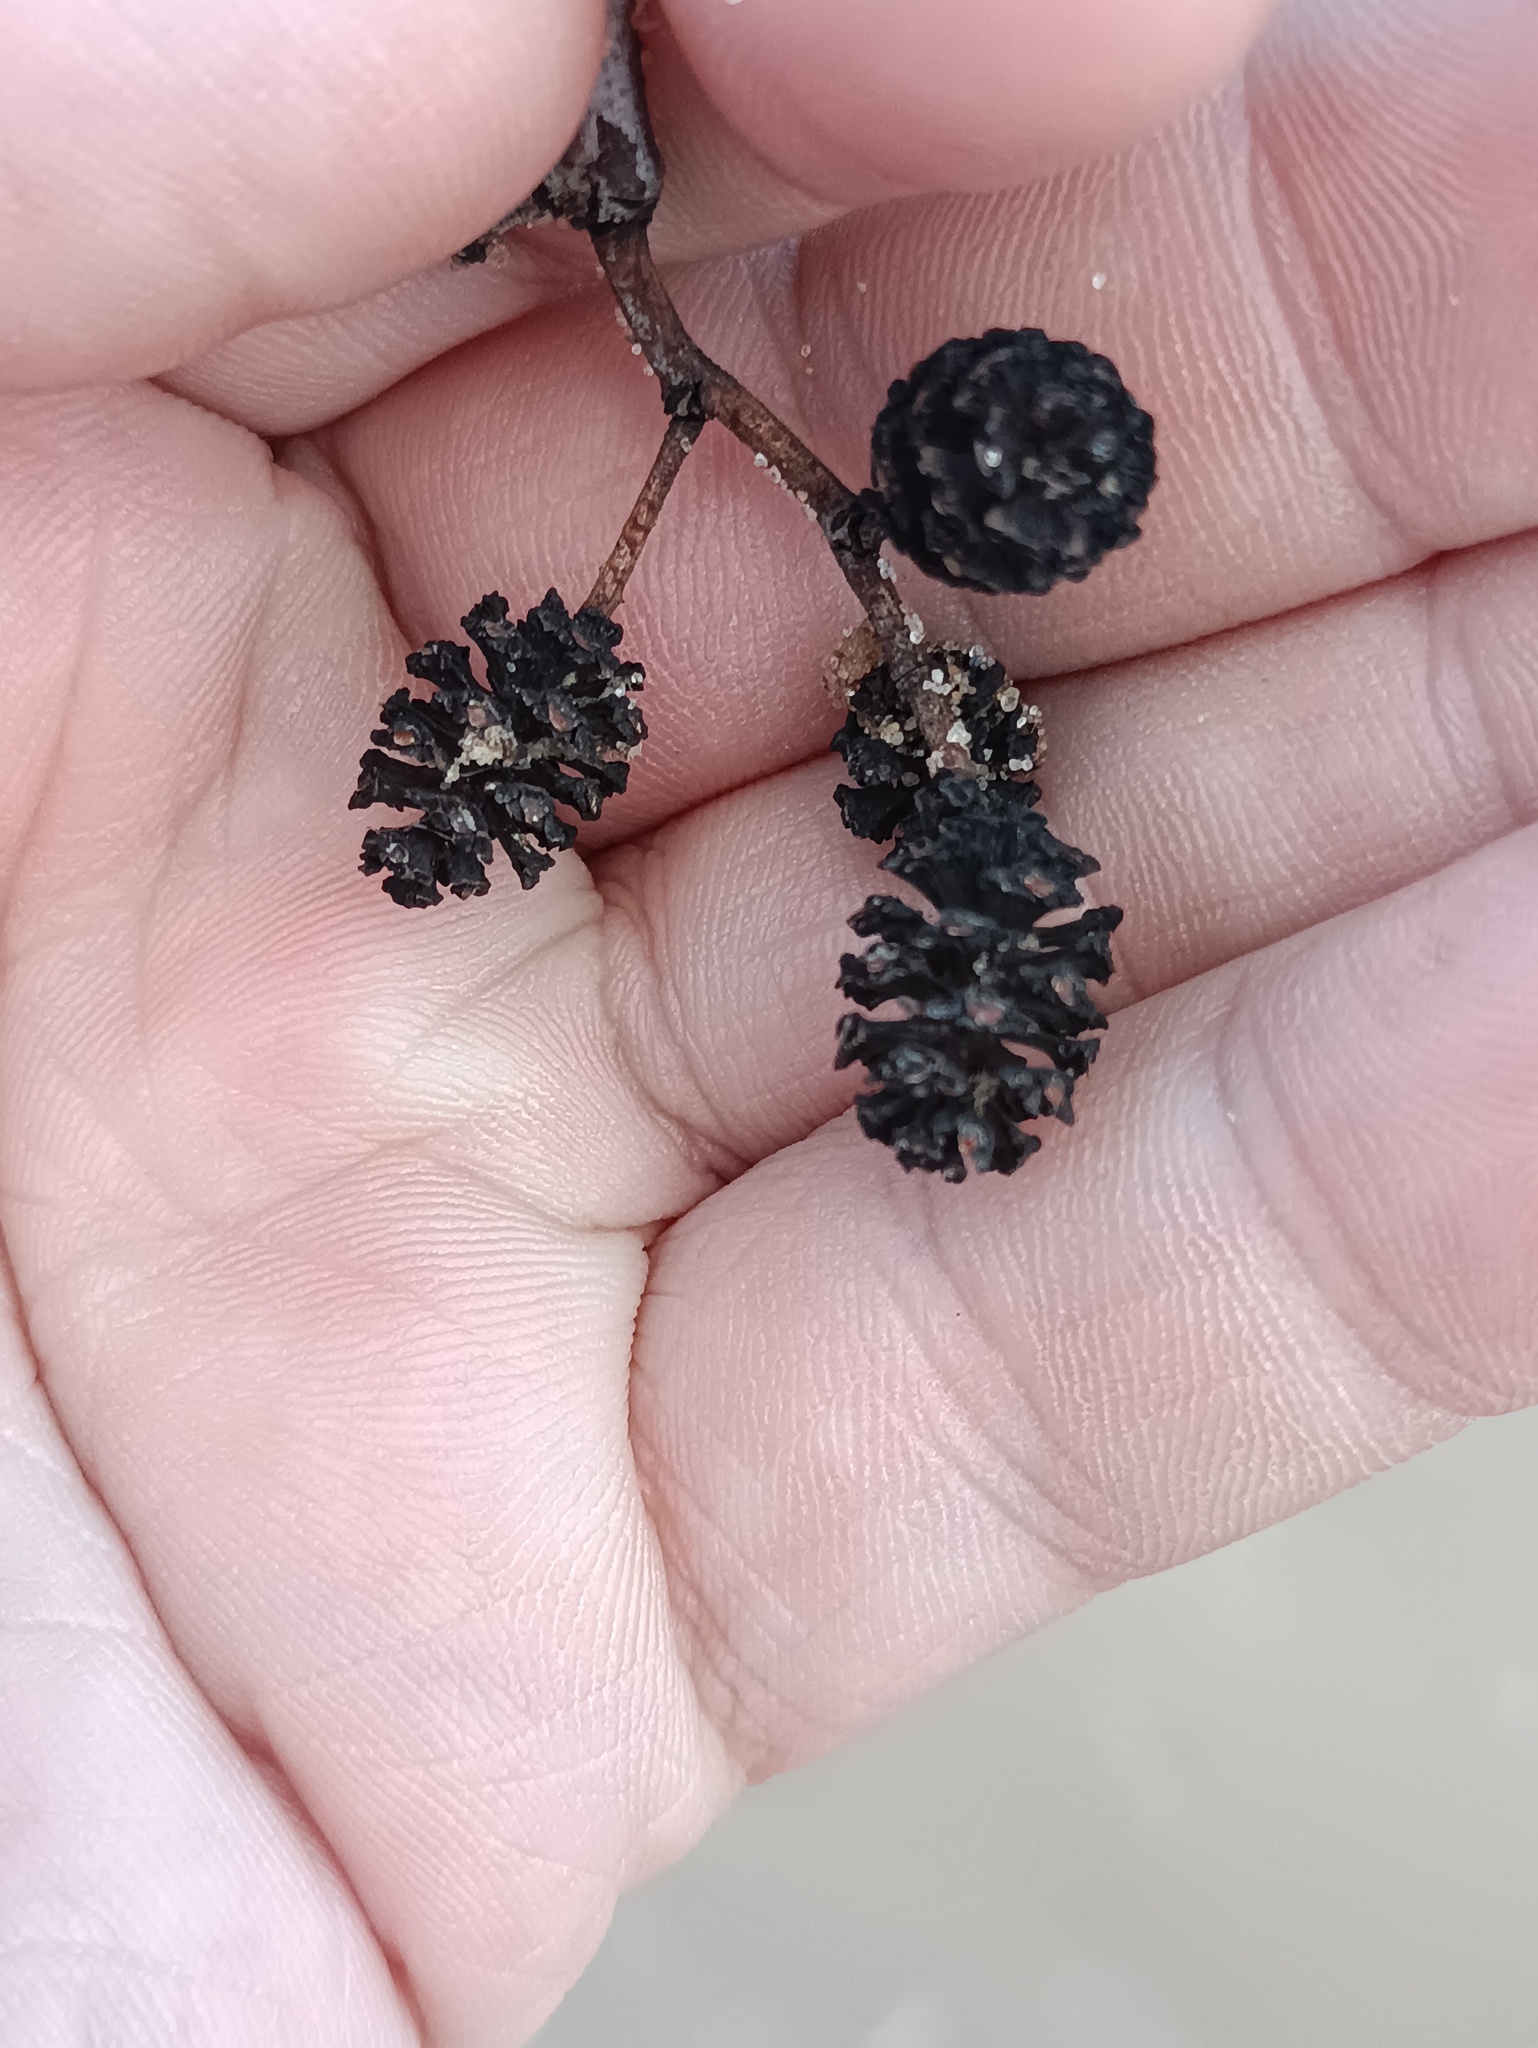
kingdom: Plantae
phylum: Tracheophyta
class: Magnoliopsida
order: Fagales
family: Betulaceae
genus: Alnus
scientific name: Alnus glutinosa
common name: Black alder
